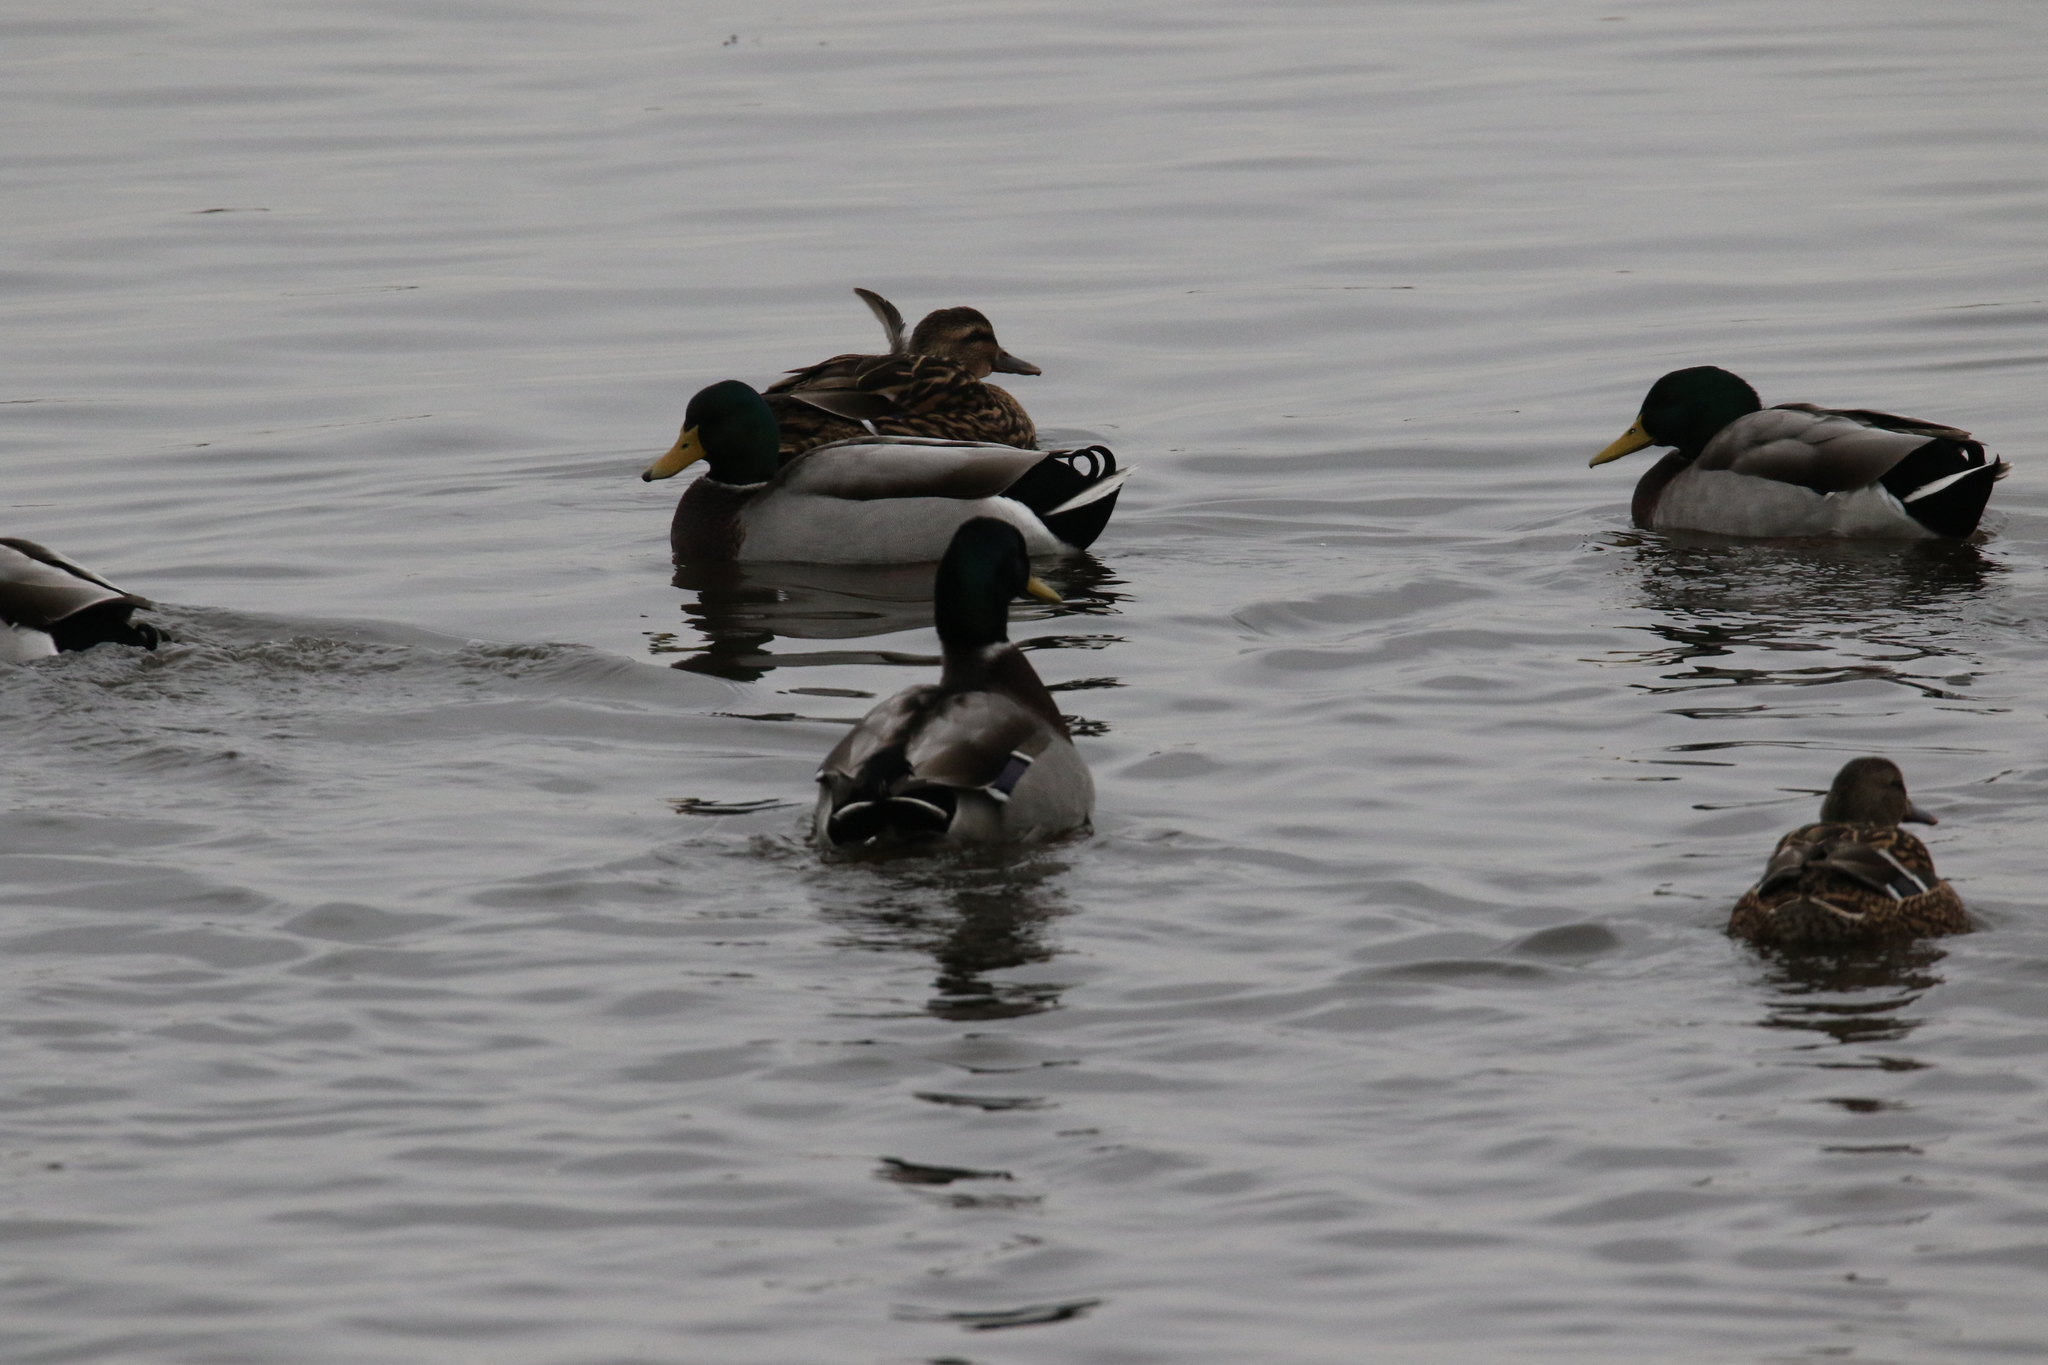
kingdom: Animalia
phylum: Chordata
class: Aves
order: Anseriformes
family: Anatidae
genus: Anas
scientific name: Anas platyrhynchos
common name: Mallard
